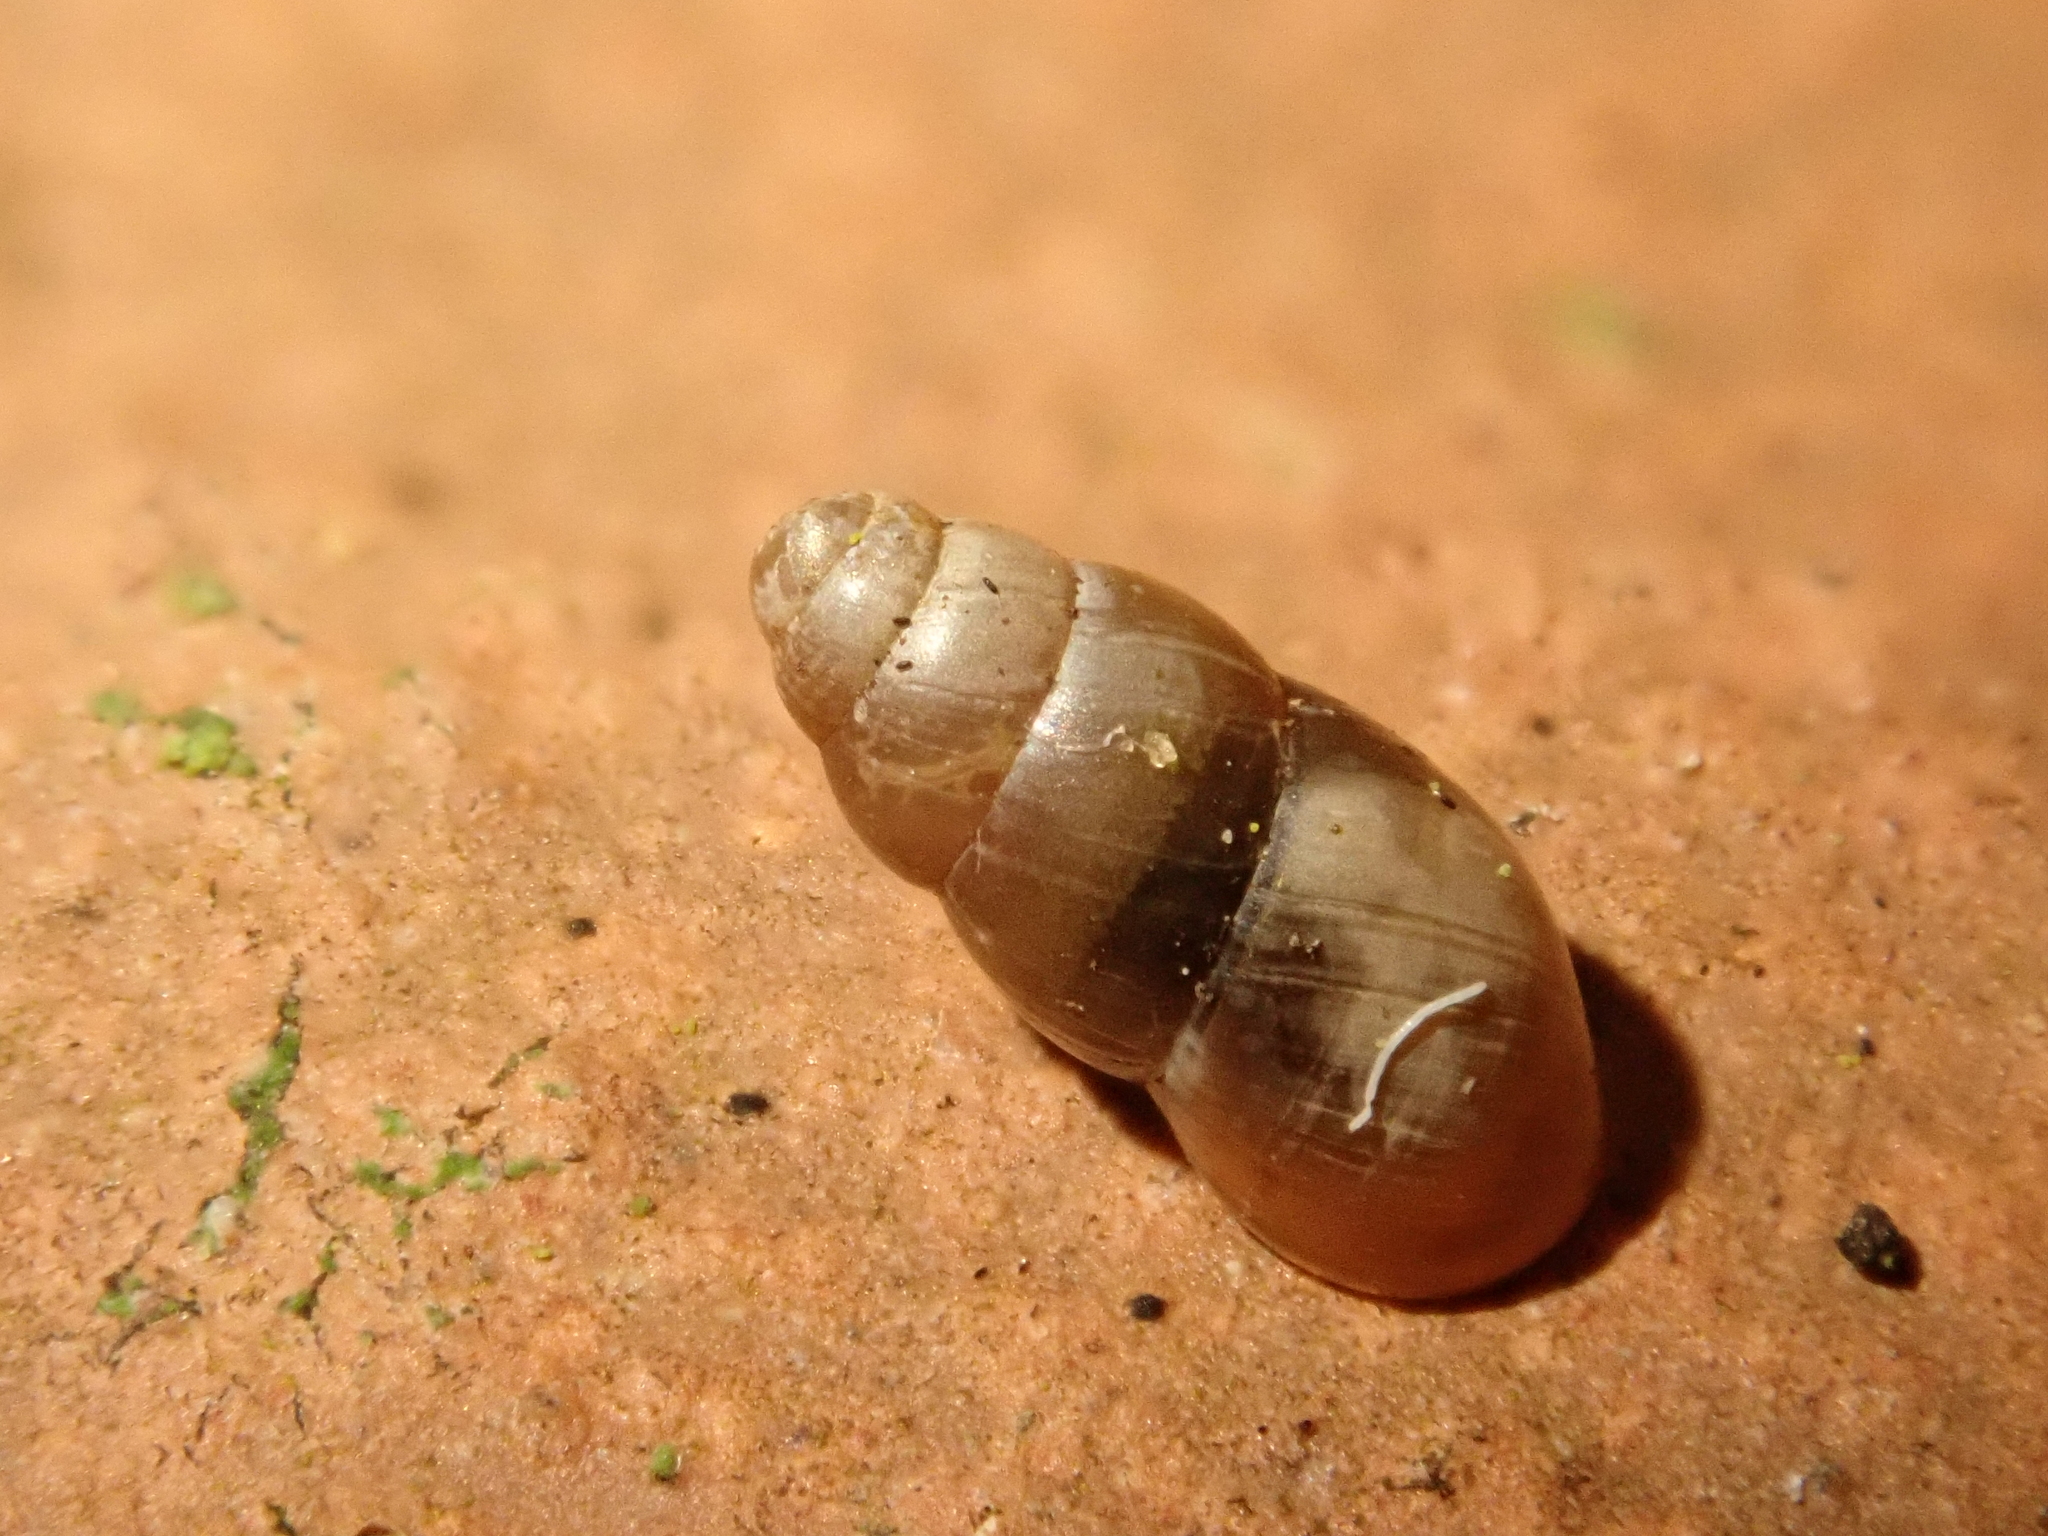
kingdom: Animalia
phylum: Mollusca
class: Gastropoda
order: Stylommatophora
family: Cochlicopidae
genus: Cochlicopa
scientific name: Cochlicopa lubrica
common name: Glossy pillar snail
